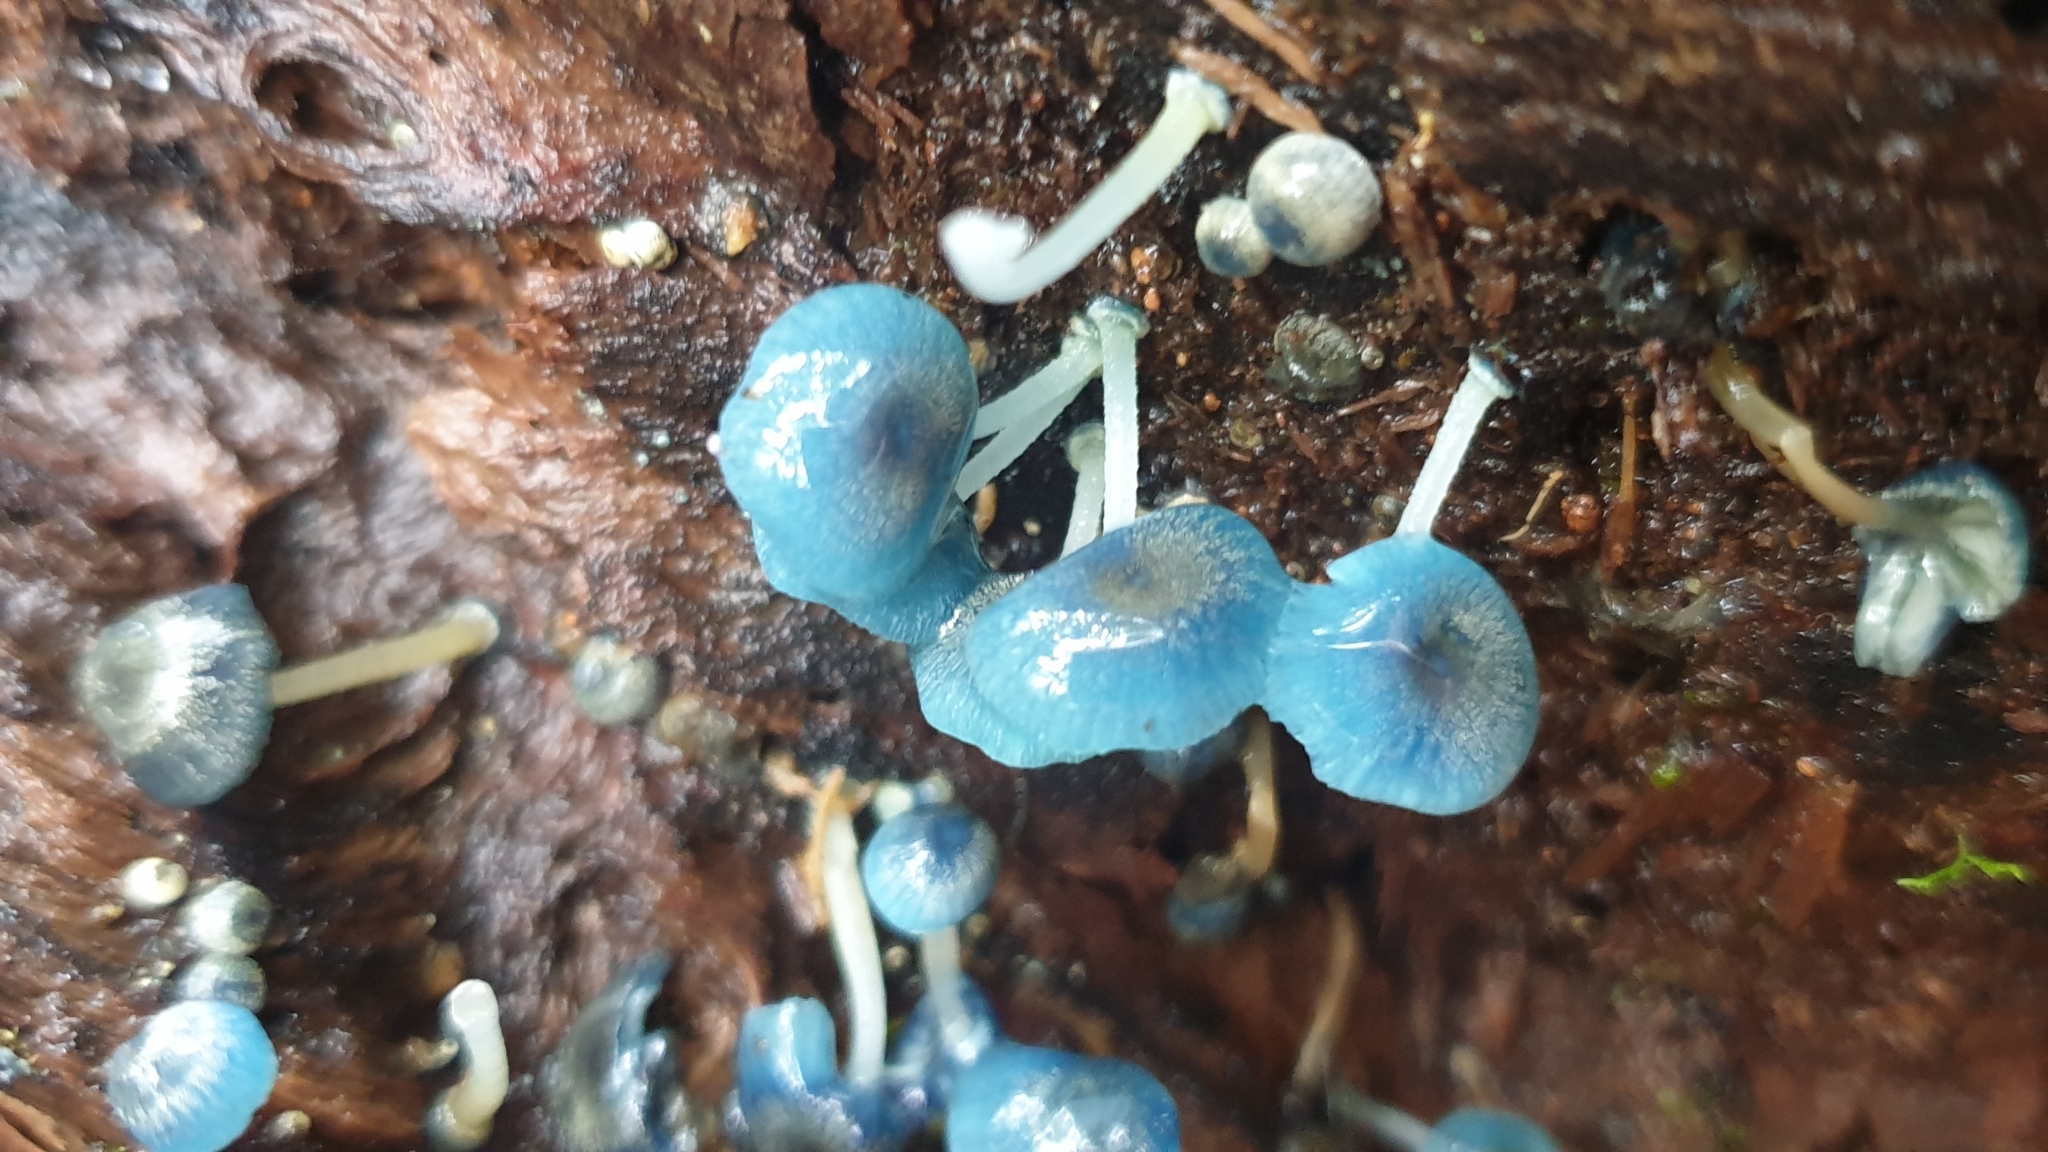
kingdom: Fungi
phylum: Basidiomycota
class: Agaricomycetes
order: Agaricales
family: Mycenaceae
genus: Mycena
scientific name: Mycena interrupta
